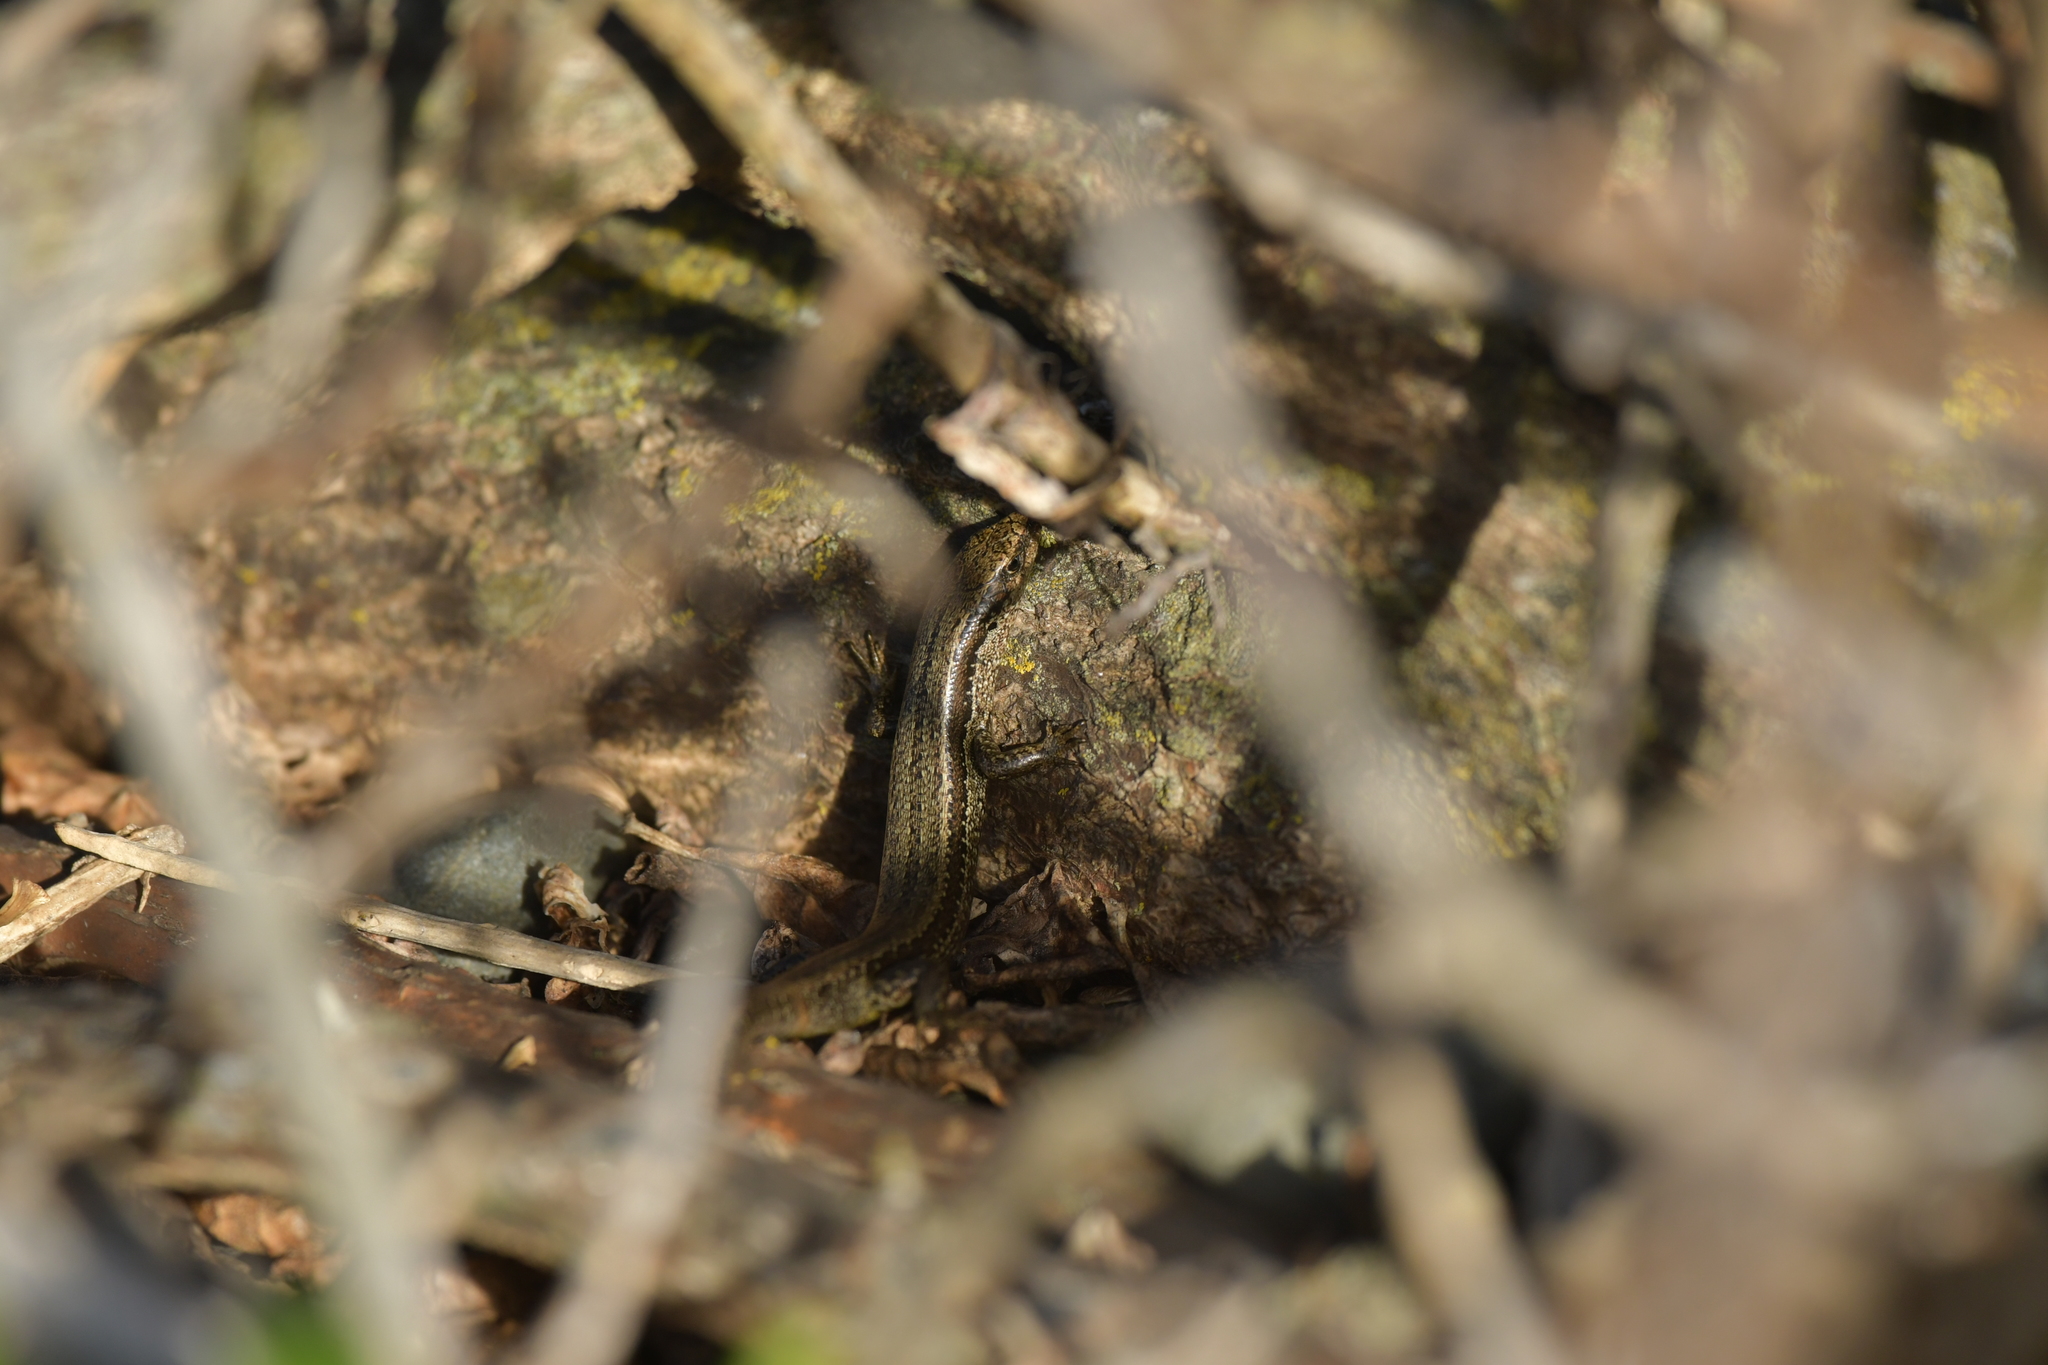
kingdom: Animalia
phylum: Chordata
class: Squamata
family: Scincidae
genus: Oligosoma
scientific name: Oligosoma polychroma
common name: Common new zealand skink
